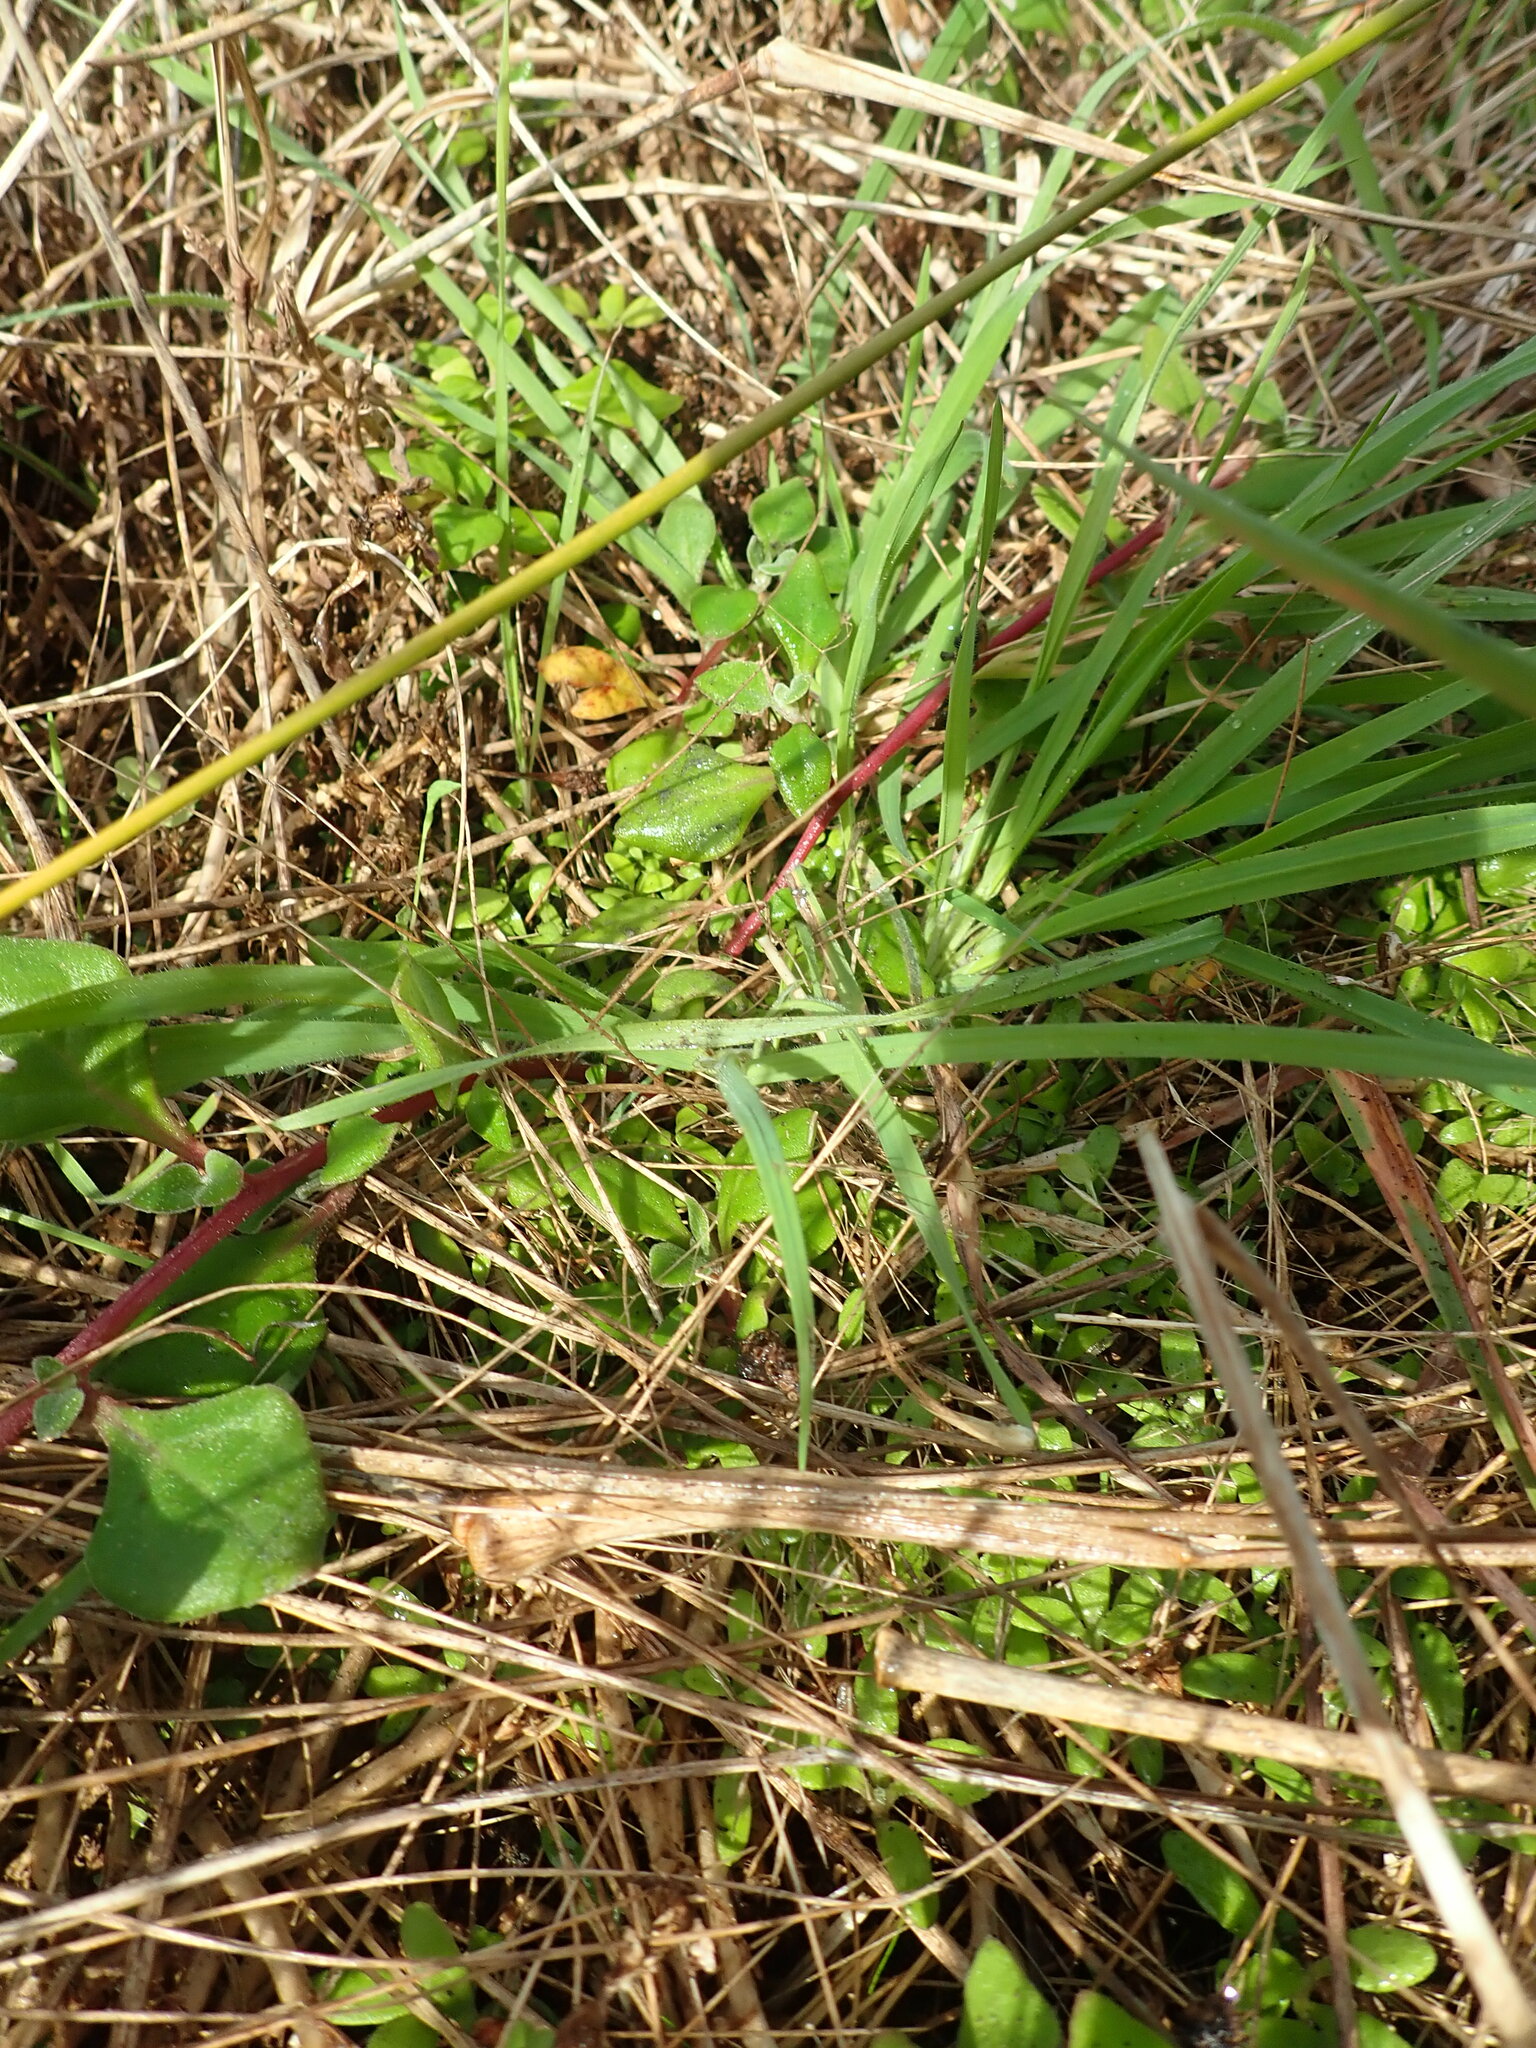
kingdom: Plantae
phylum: Tracheophyta
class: Magnoliopsida
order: Caryophyllales
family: Aizoaceae
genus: Tetragonia
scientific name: Tetragonia implexicoma
